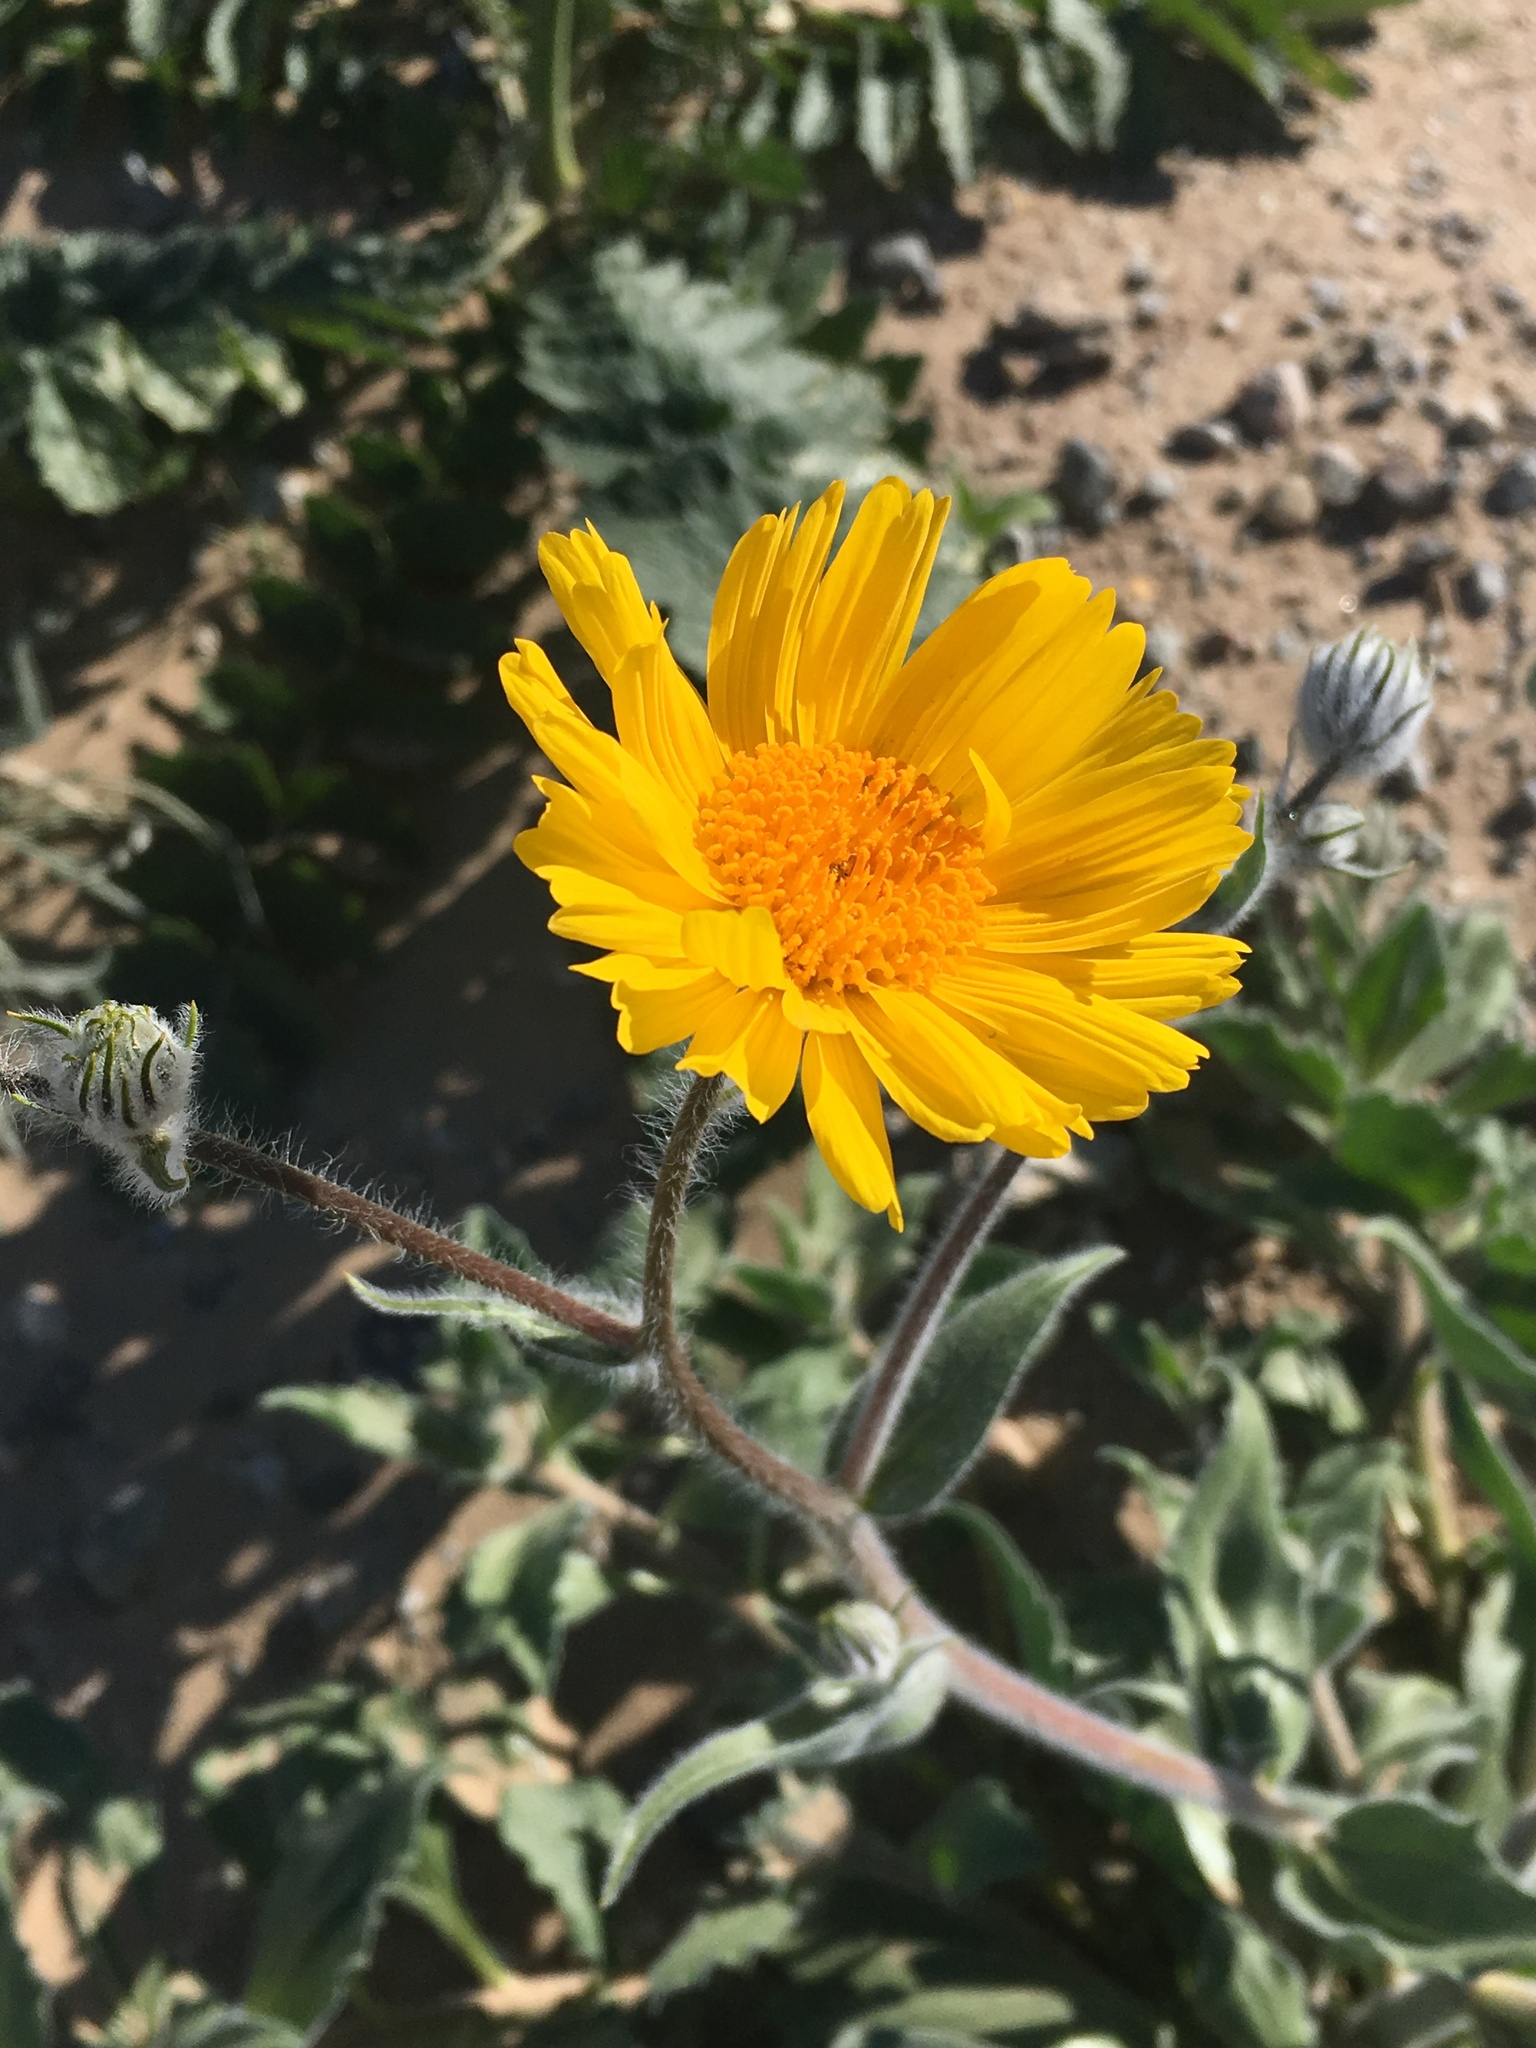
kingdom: Plantae
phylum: Tracheophyta
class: Magnoliopsida
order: Asterales
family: Asteraceae
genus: Geraea
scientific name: Geraea canescens
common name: Desert-gold
